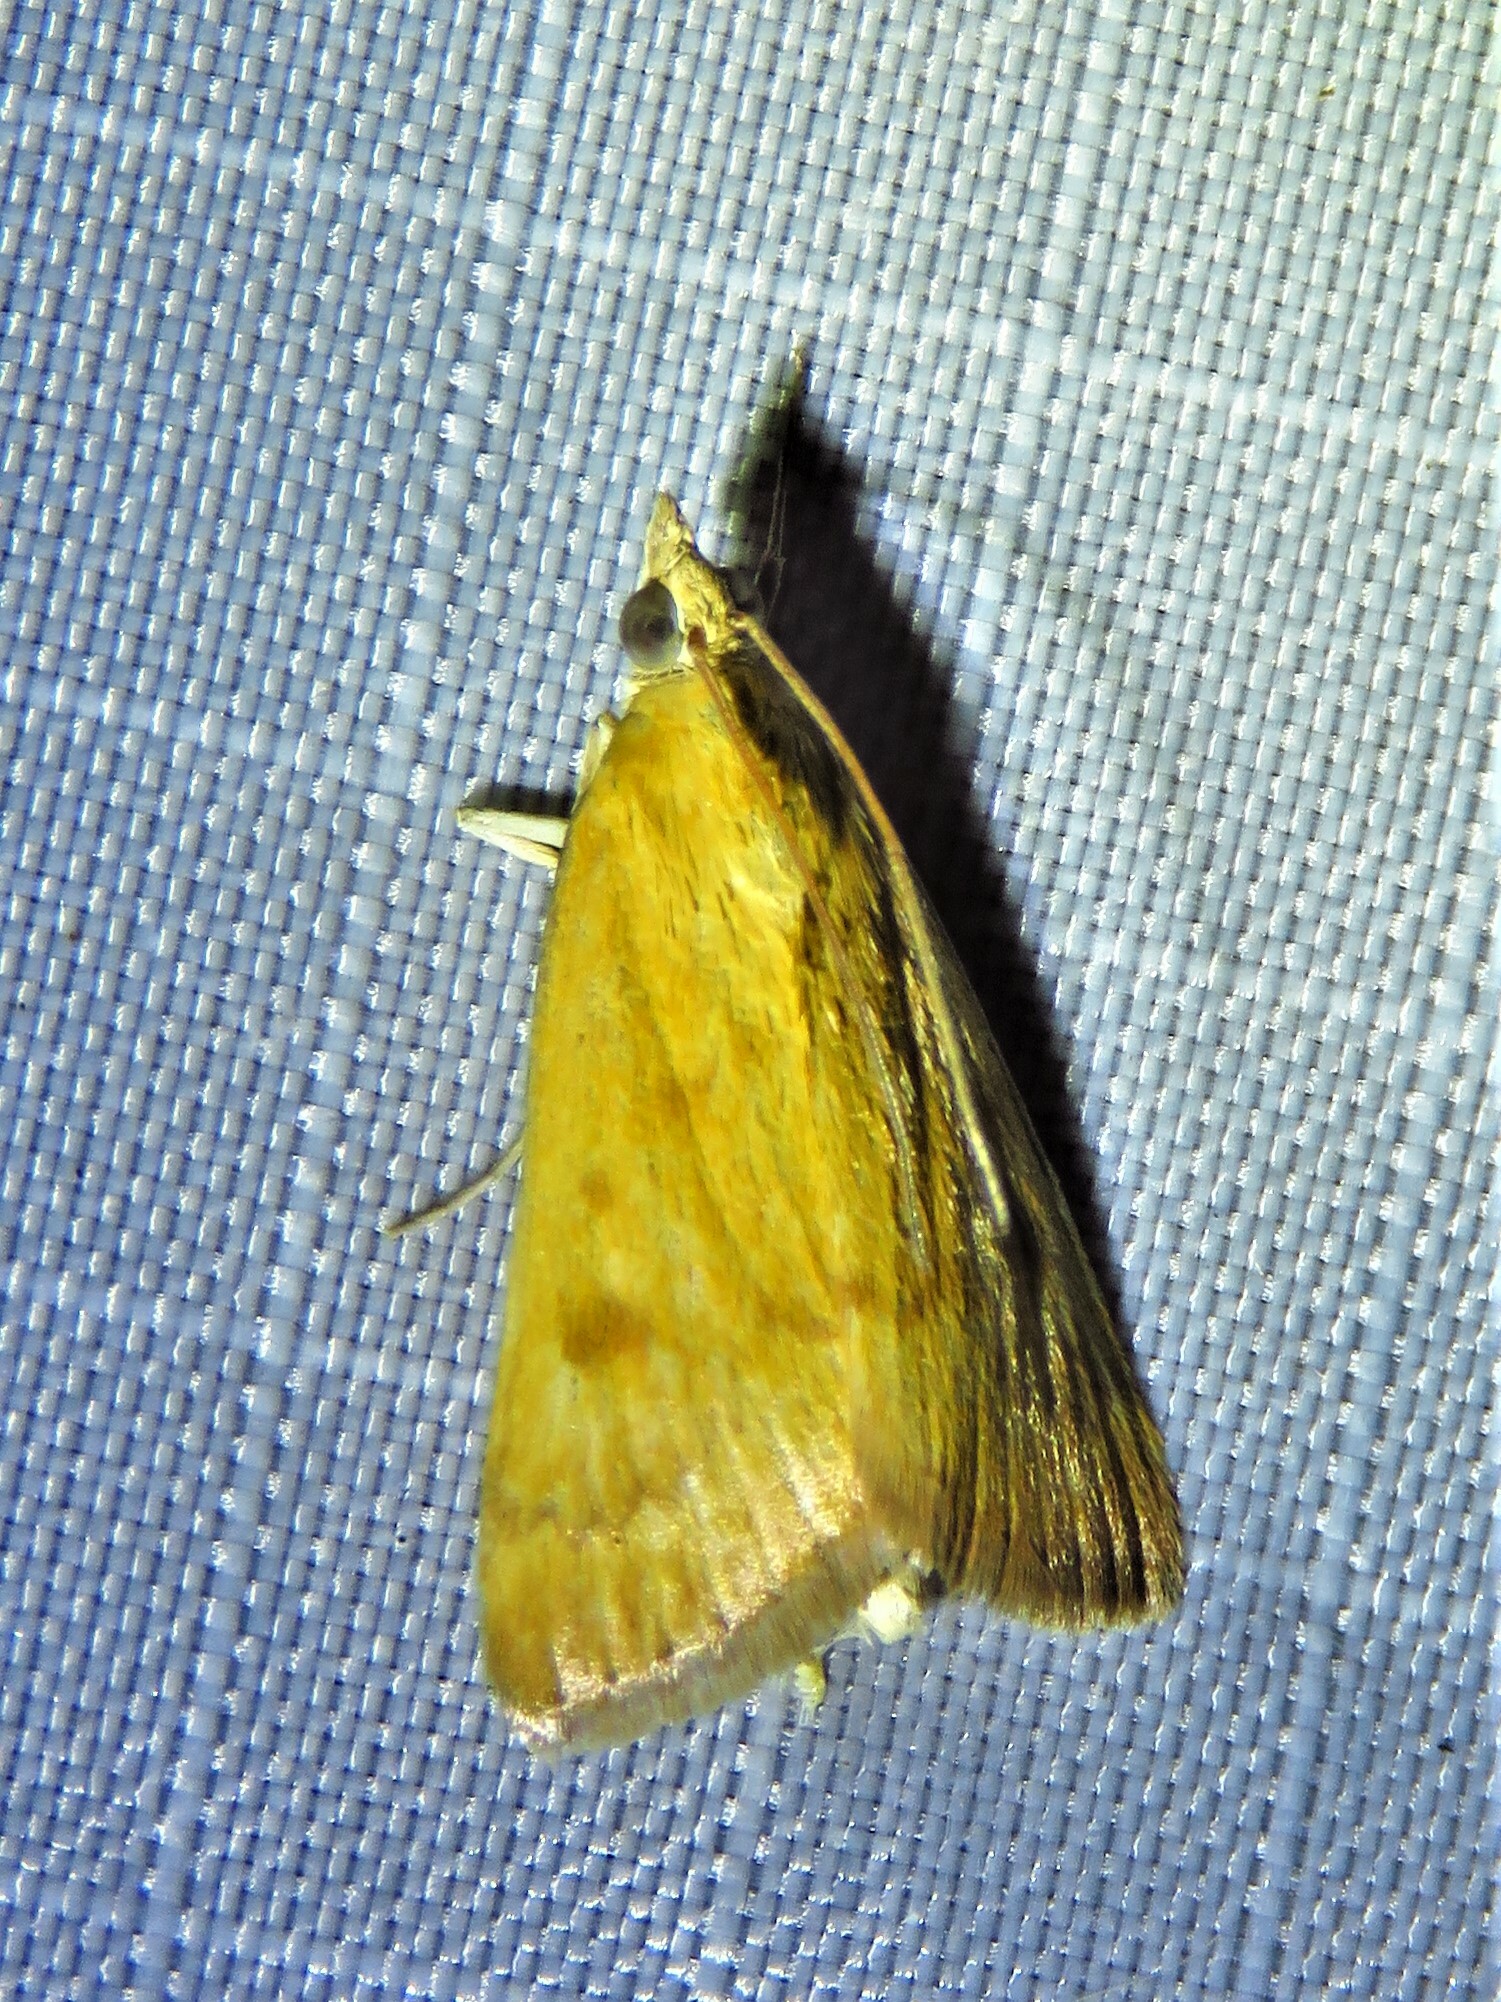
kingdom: Animalia
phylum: Arthropoda
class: Insecta
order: Lepidoptera
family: Crambidae
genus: Achyra
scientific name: Achyra rantalis
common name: Garden webworm
